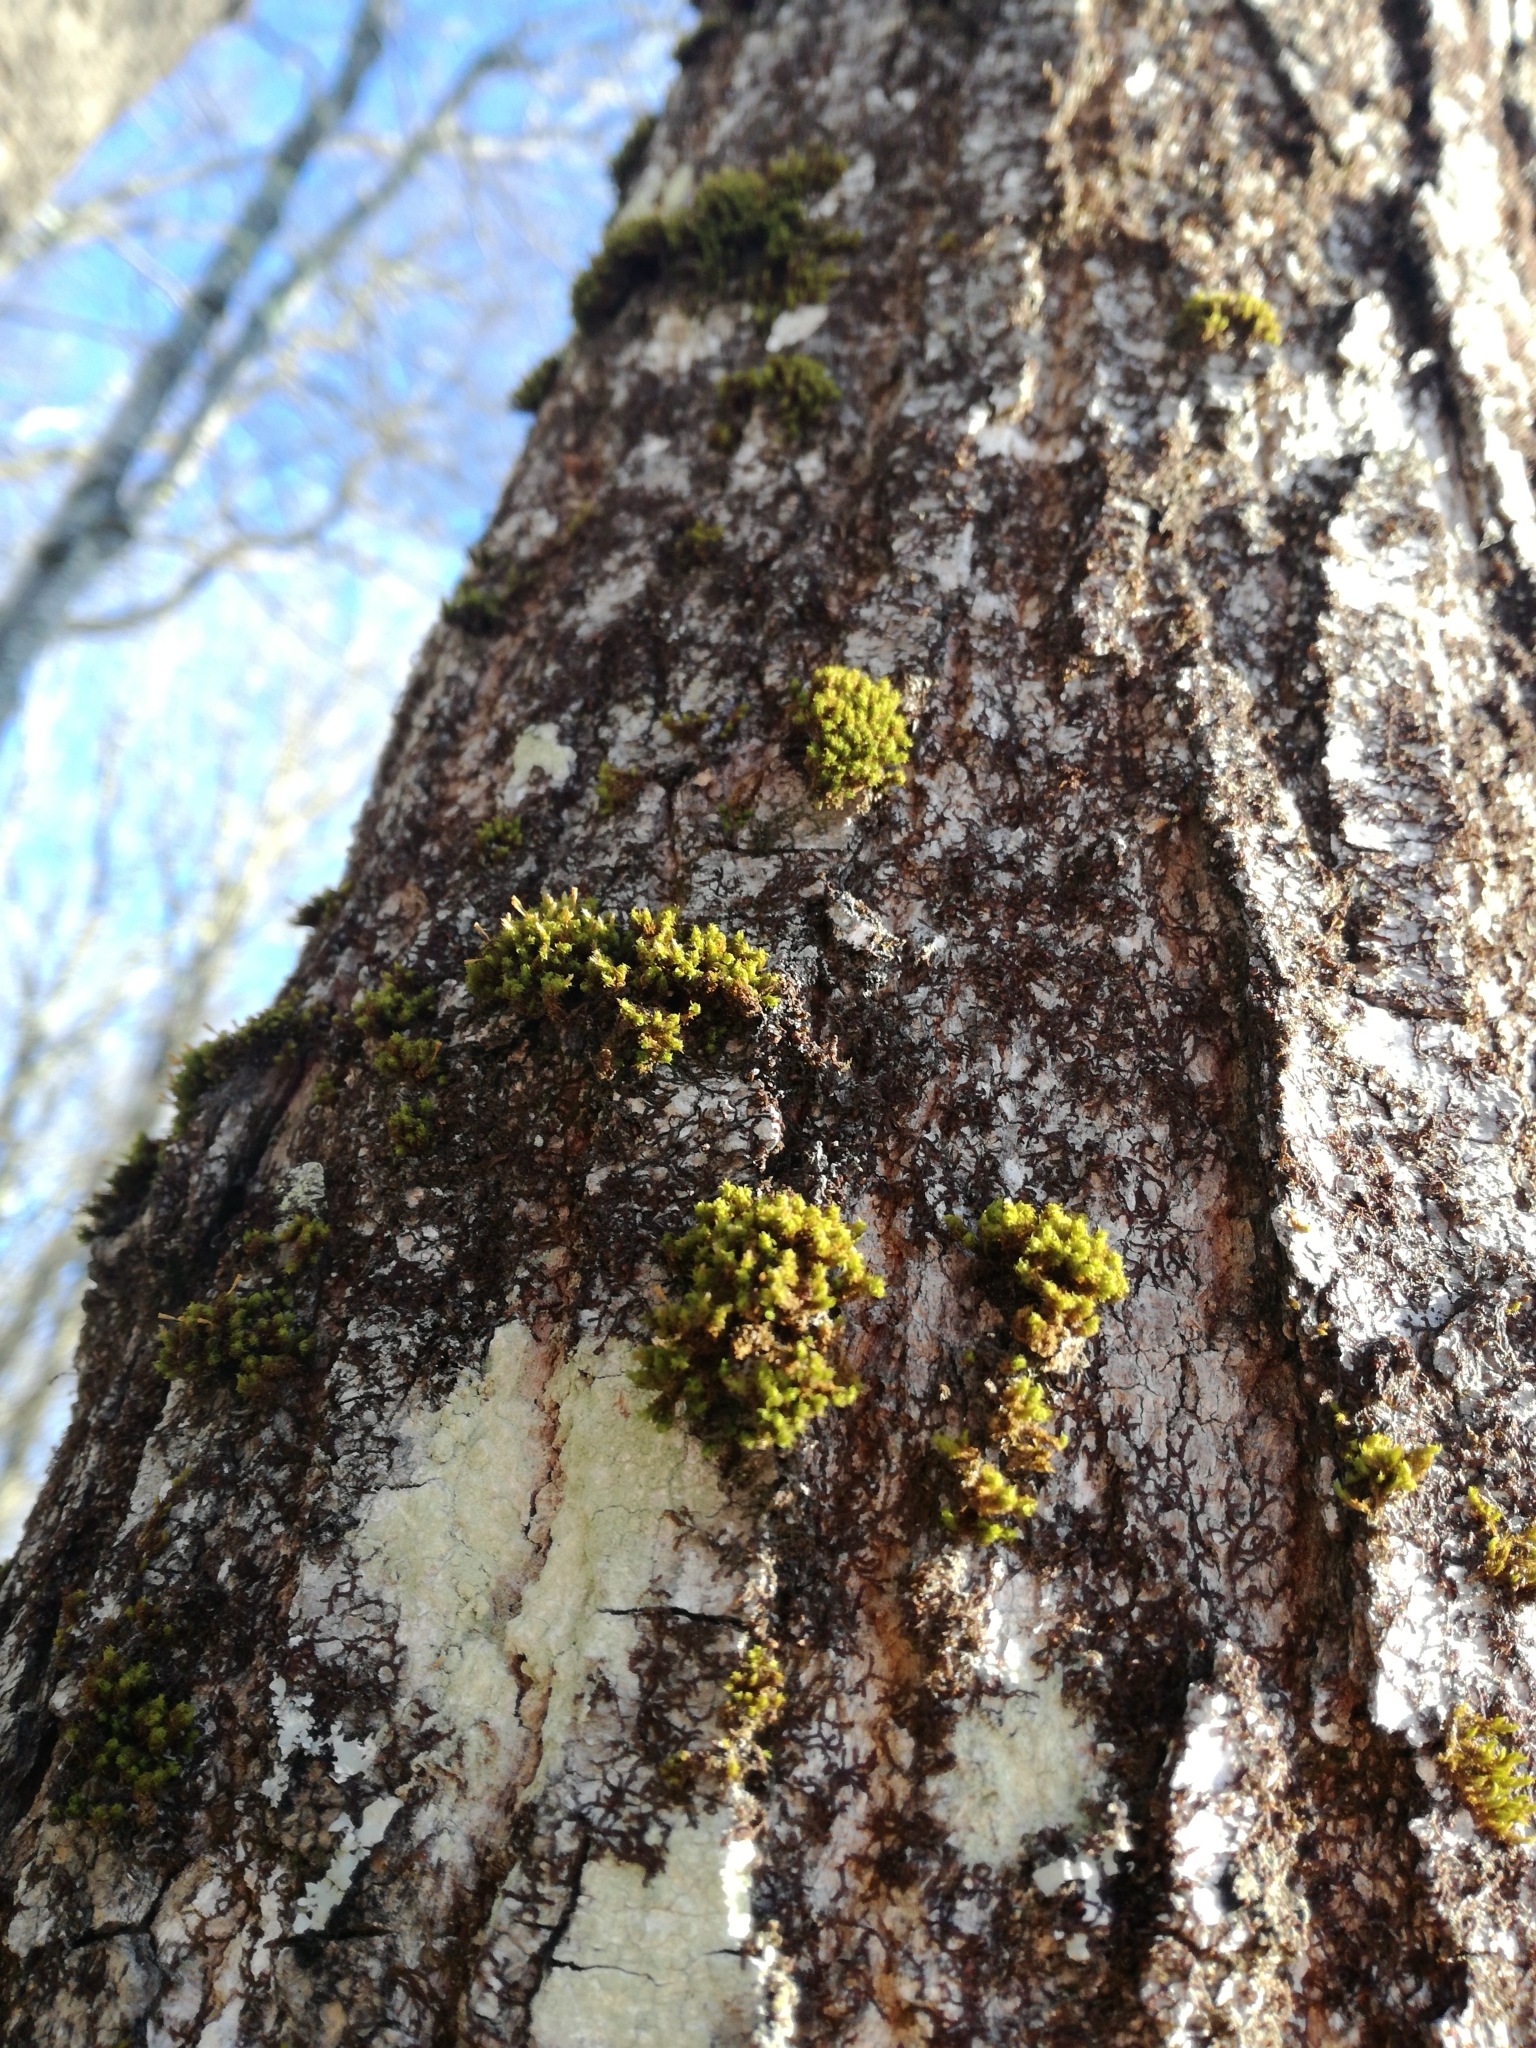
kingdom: Plantae
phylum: Bryophyta
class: Bryopsida
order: Orthotrichales
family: Orthotrichaceae
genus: Ulota
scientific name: Ulota crispa
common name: Crisped pincushion moss
